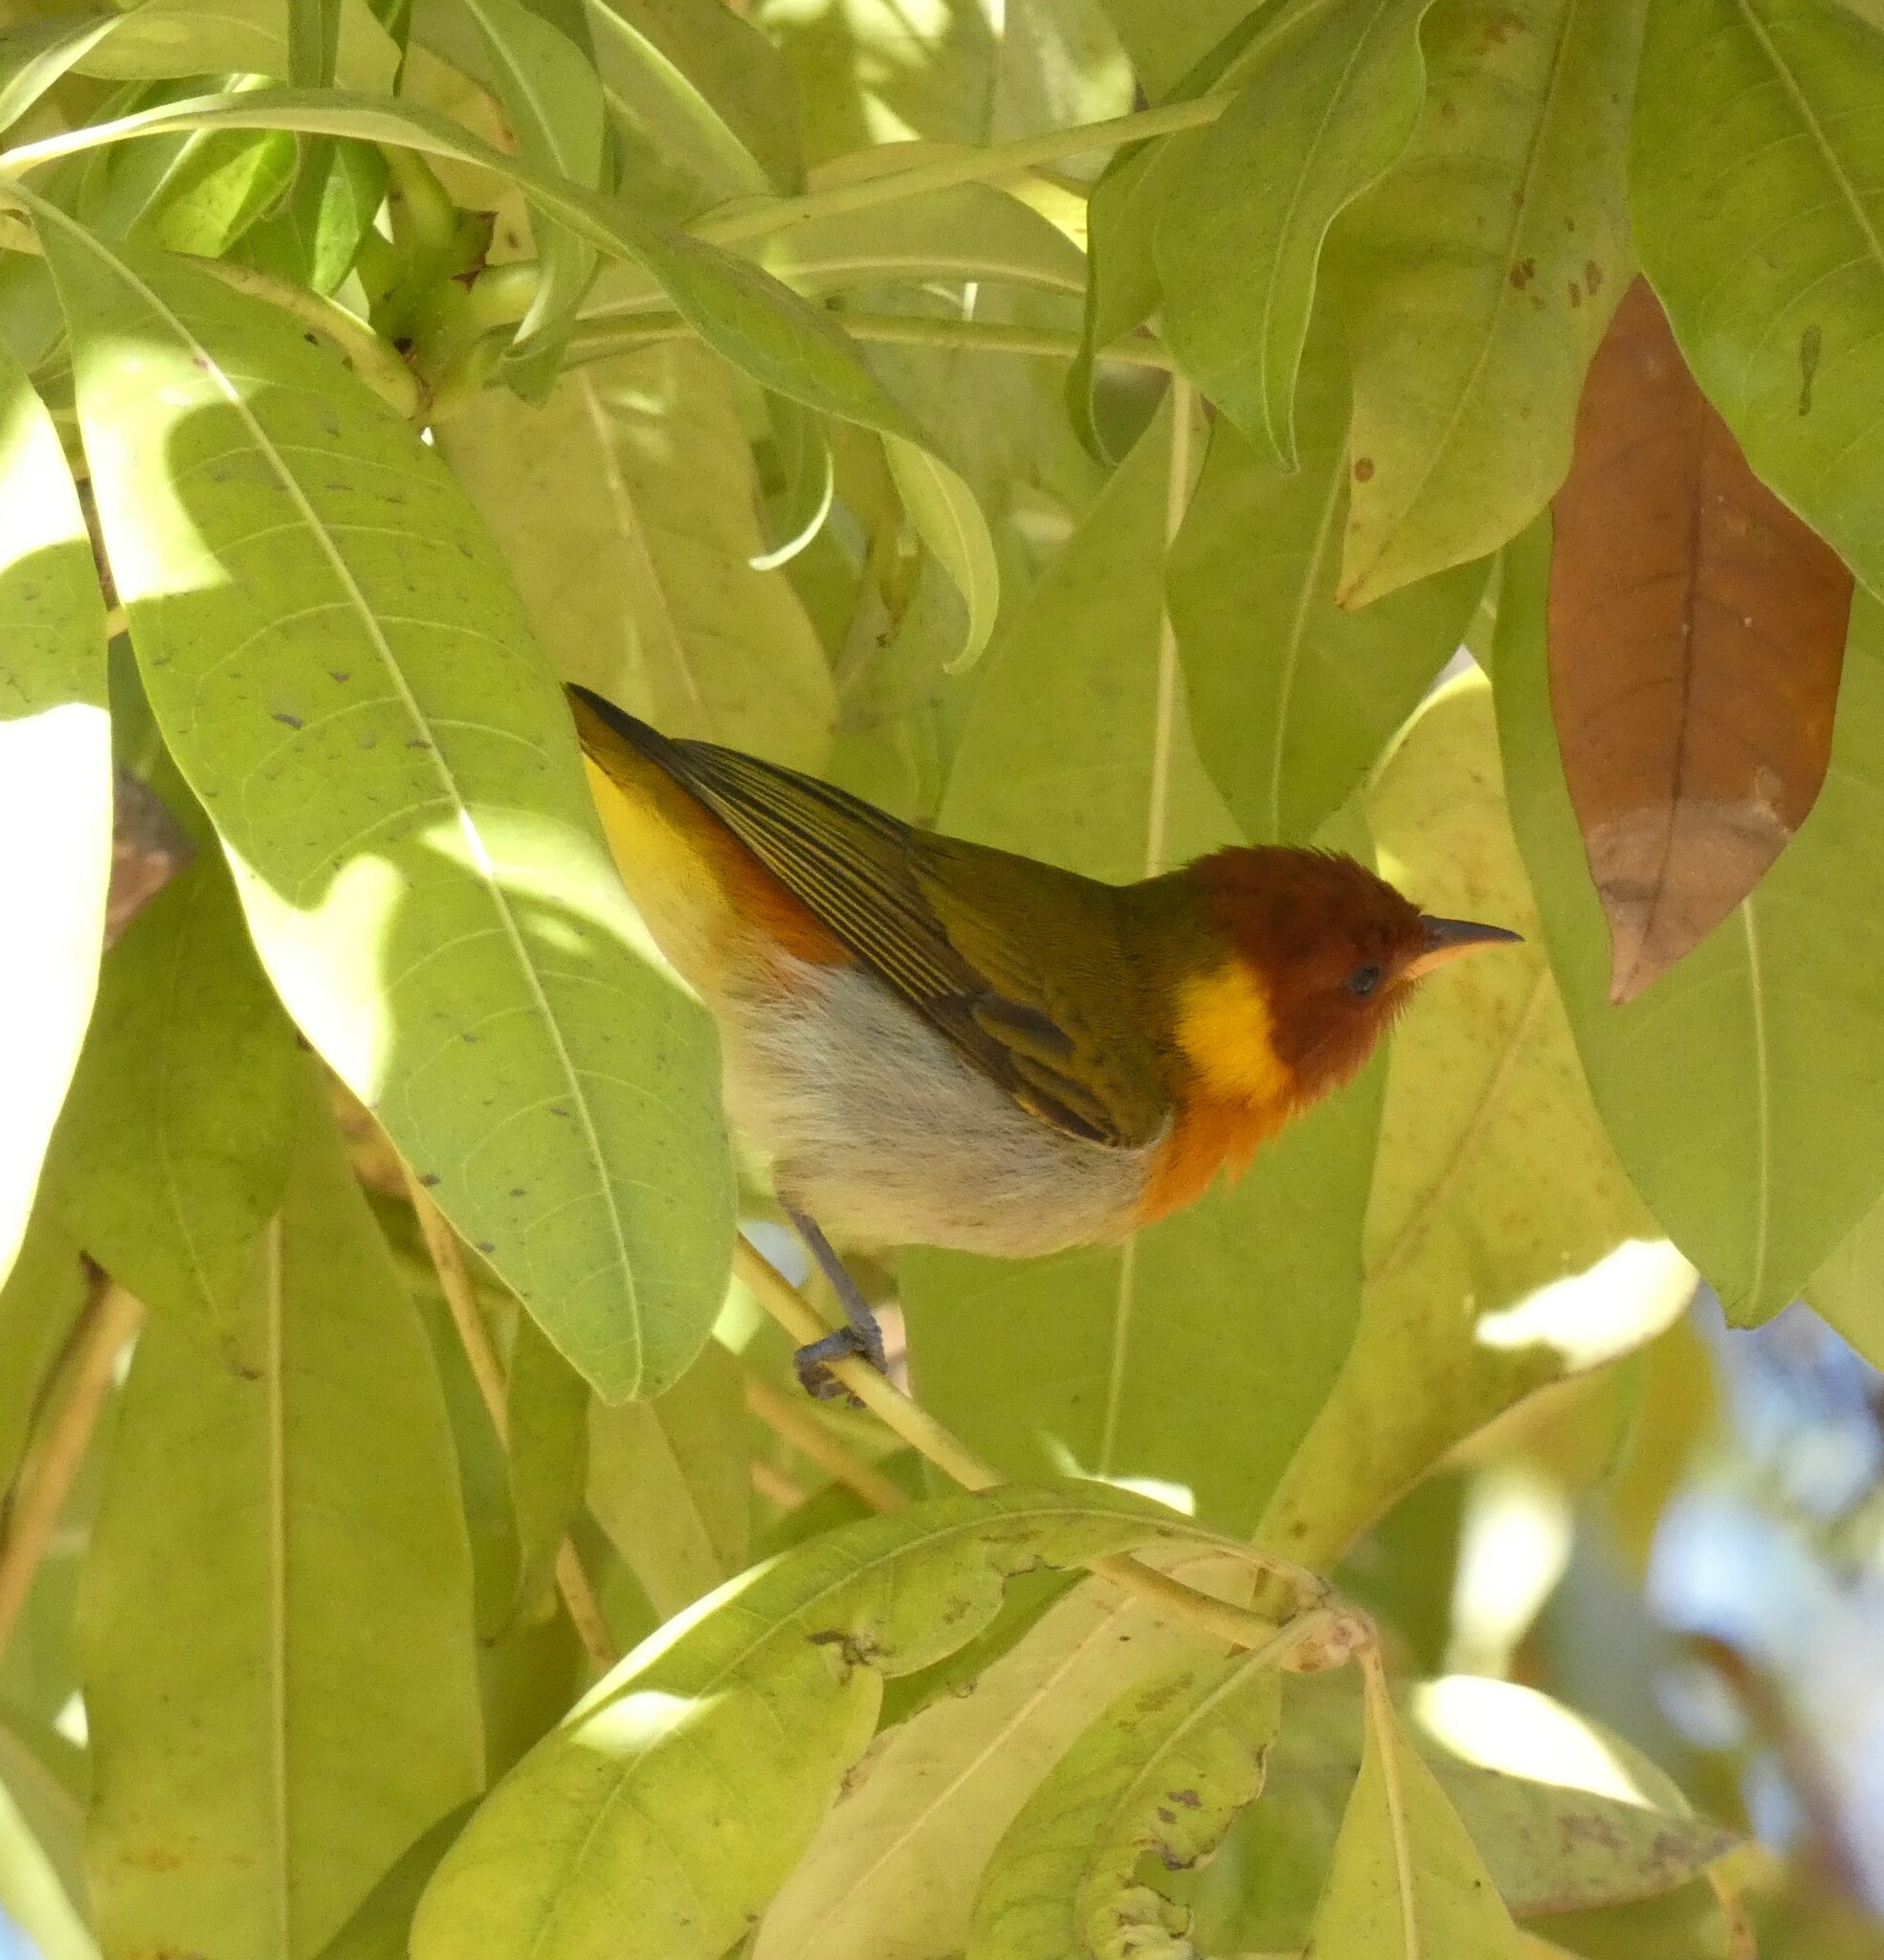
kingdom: Animalia
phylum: Chordata
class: Aves
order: Passeriformes
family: Thraupidae
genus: Hemithraupis
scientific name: Hemithraupis ruficapilla
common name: Rufous-headed tanager
